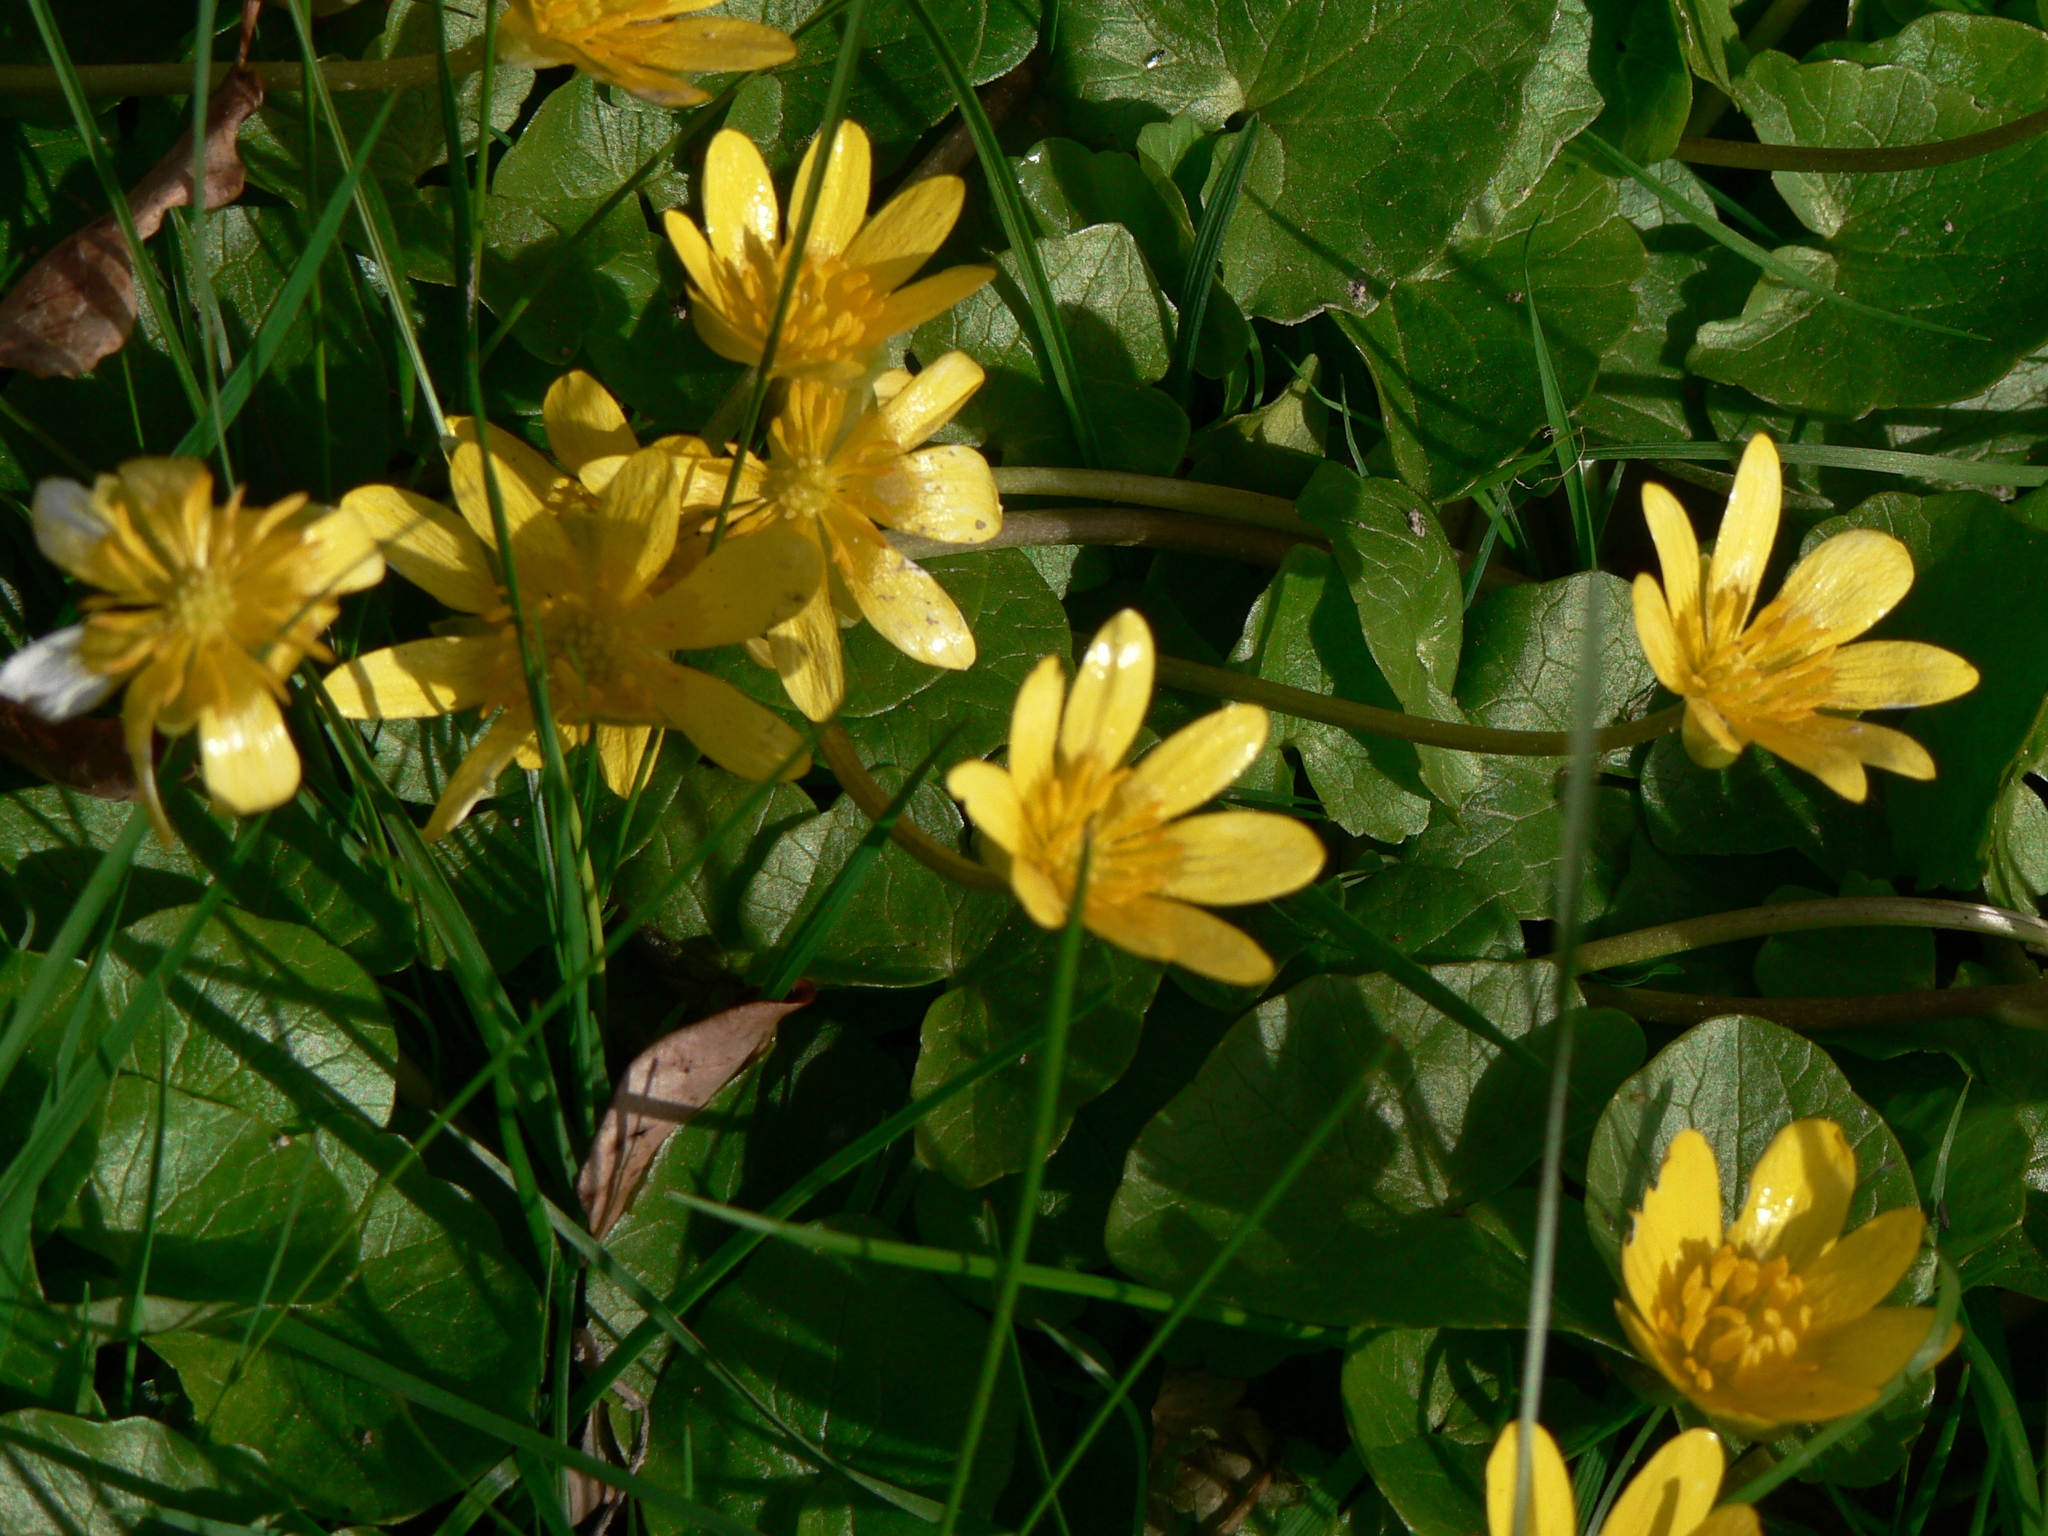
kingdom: Plantae
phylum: Tracheophyta
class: Magnoliopsida
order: Ranunculales
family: Ranunculaceae
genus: Ficaria
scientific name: Ficaria verna
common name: Lesser celandine
